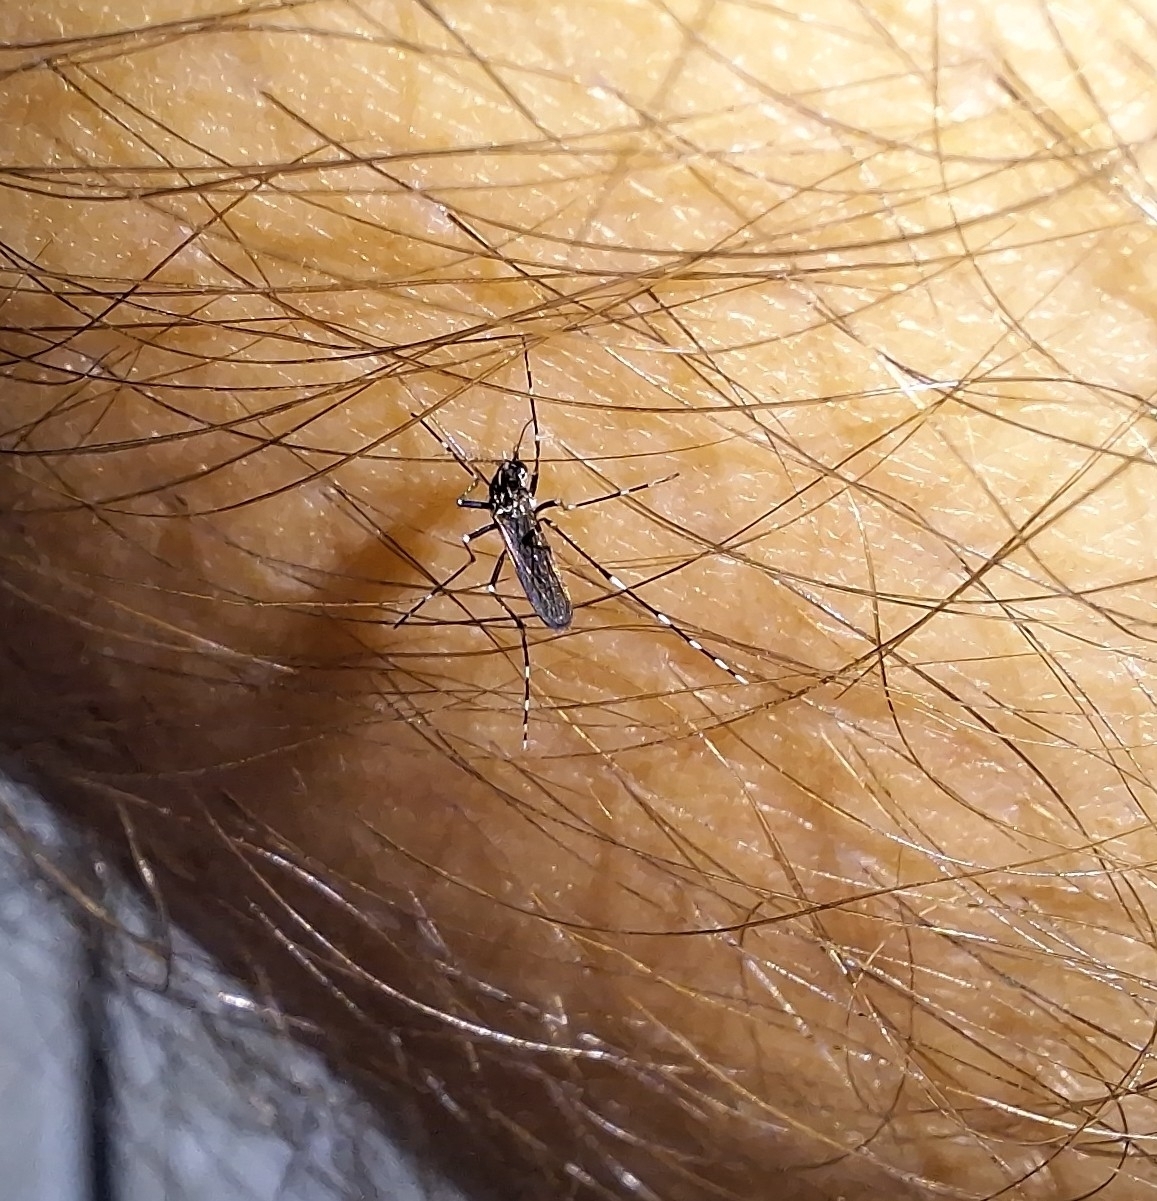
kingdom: Animalia
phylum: Arthropoda
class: Insecta
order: Diptera
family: Culicidae
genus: Aedes
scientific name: Aedes albopictus
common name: Tiger mosquito
